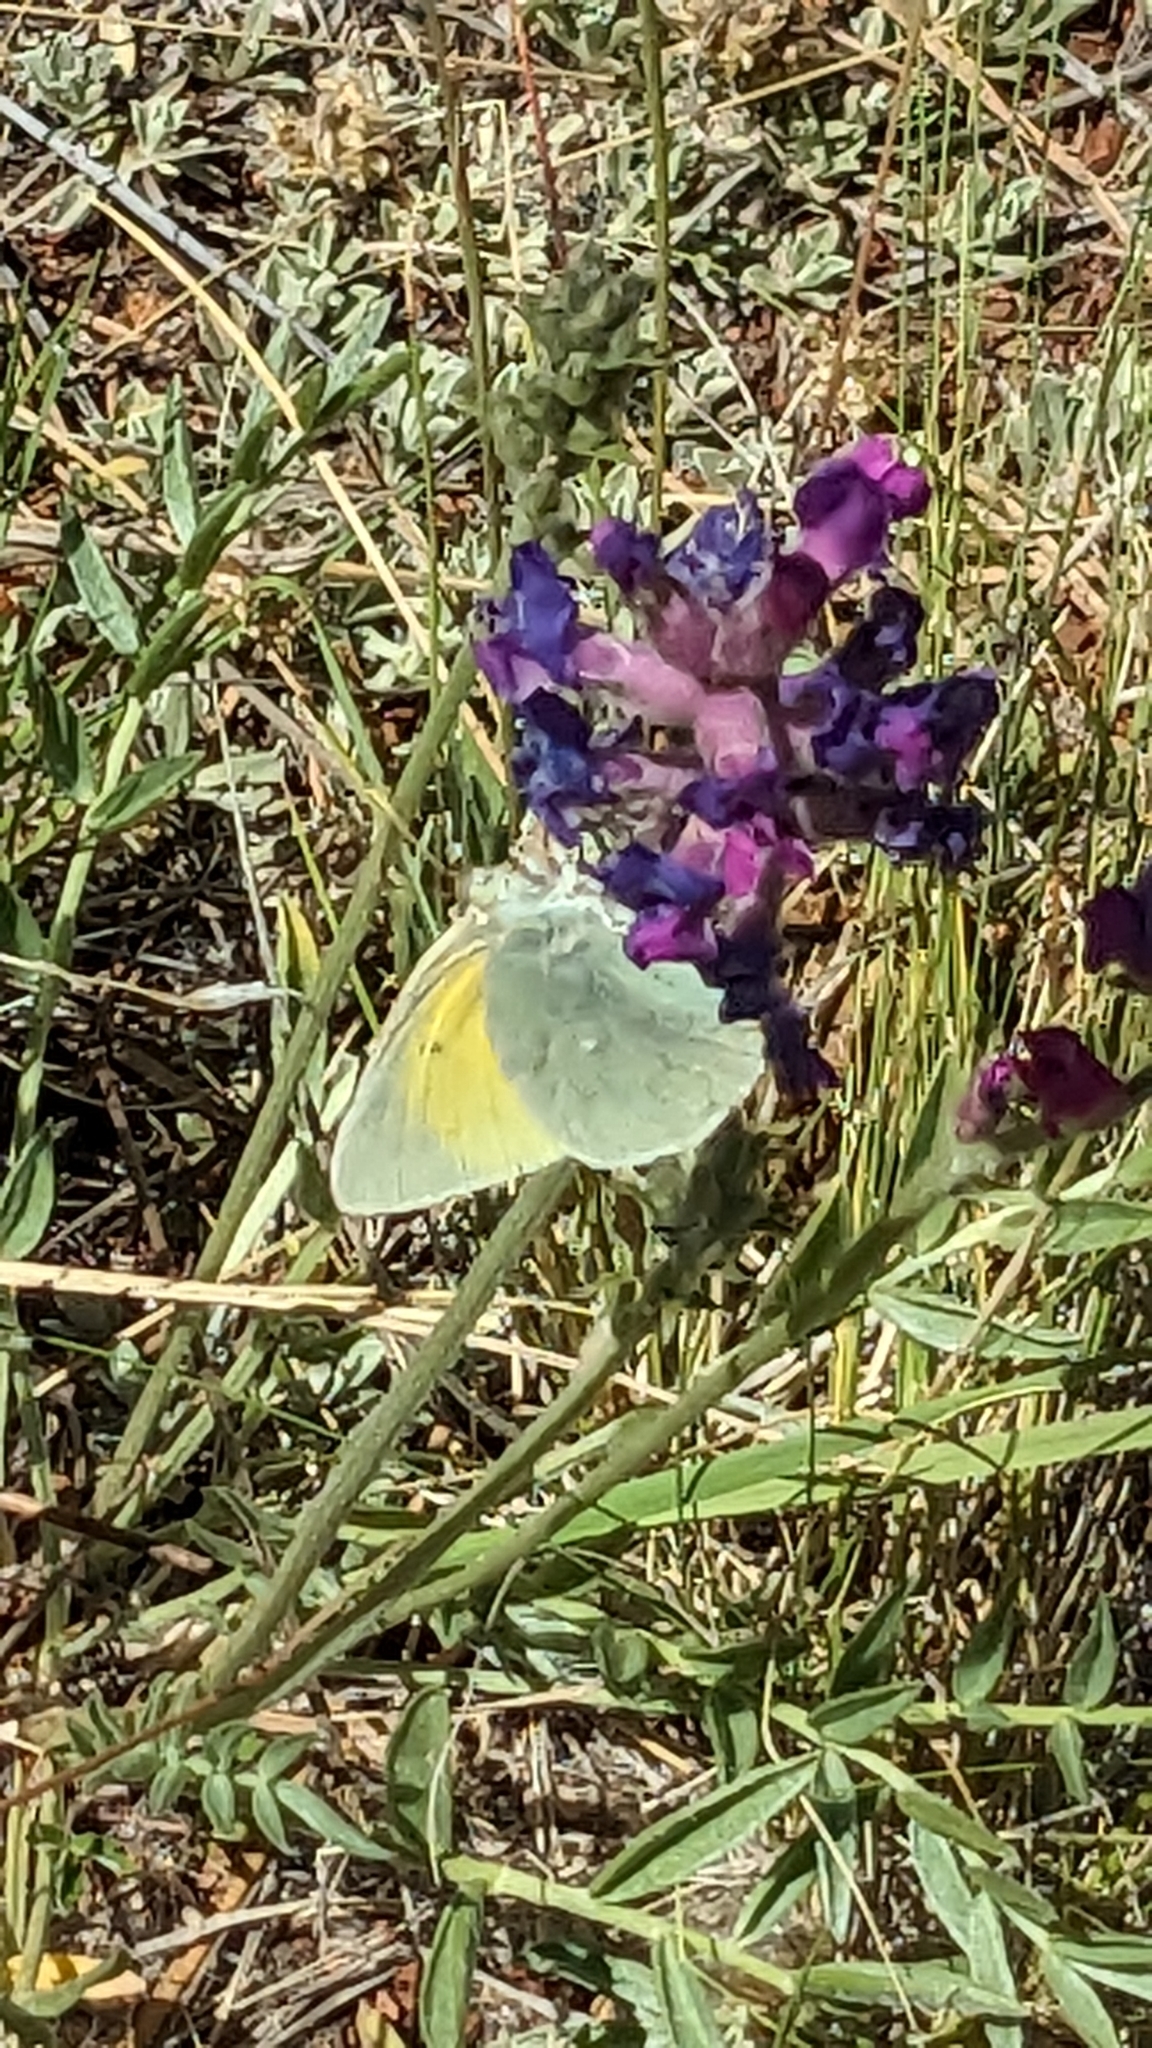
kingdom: Animalia
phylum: Arthropoda
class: Insecta
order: Lepidoptera
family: Pieridae
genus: Colias
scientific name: Colias alexandra
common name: Alexandra sulphur
